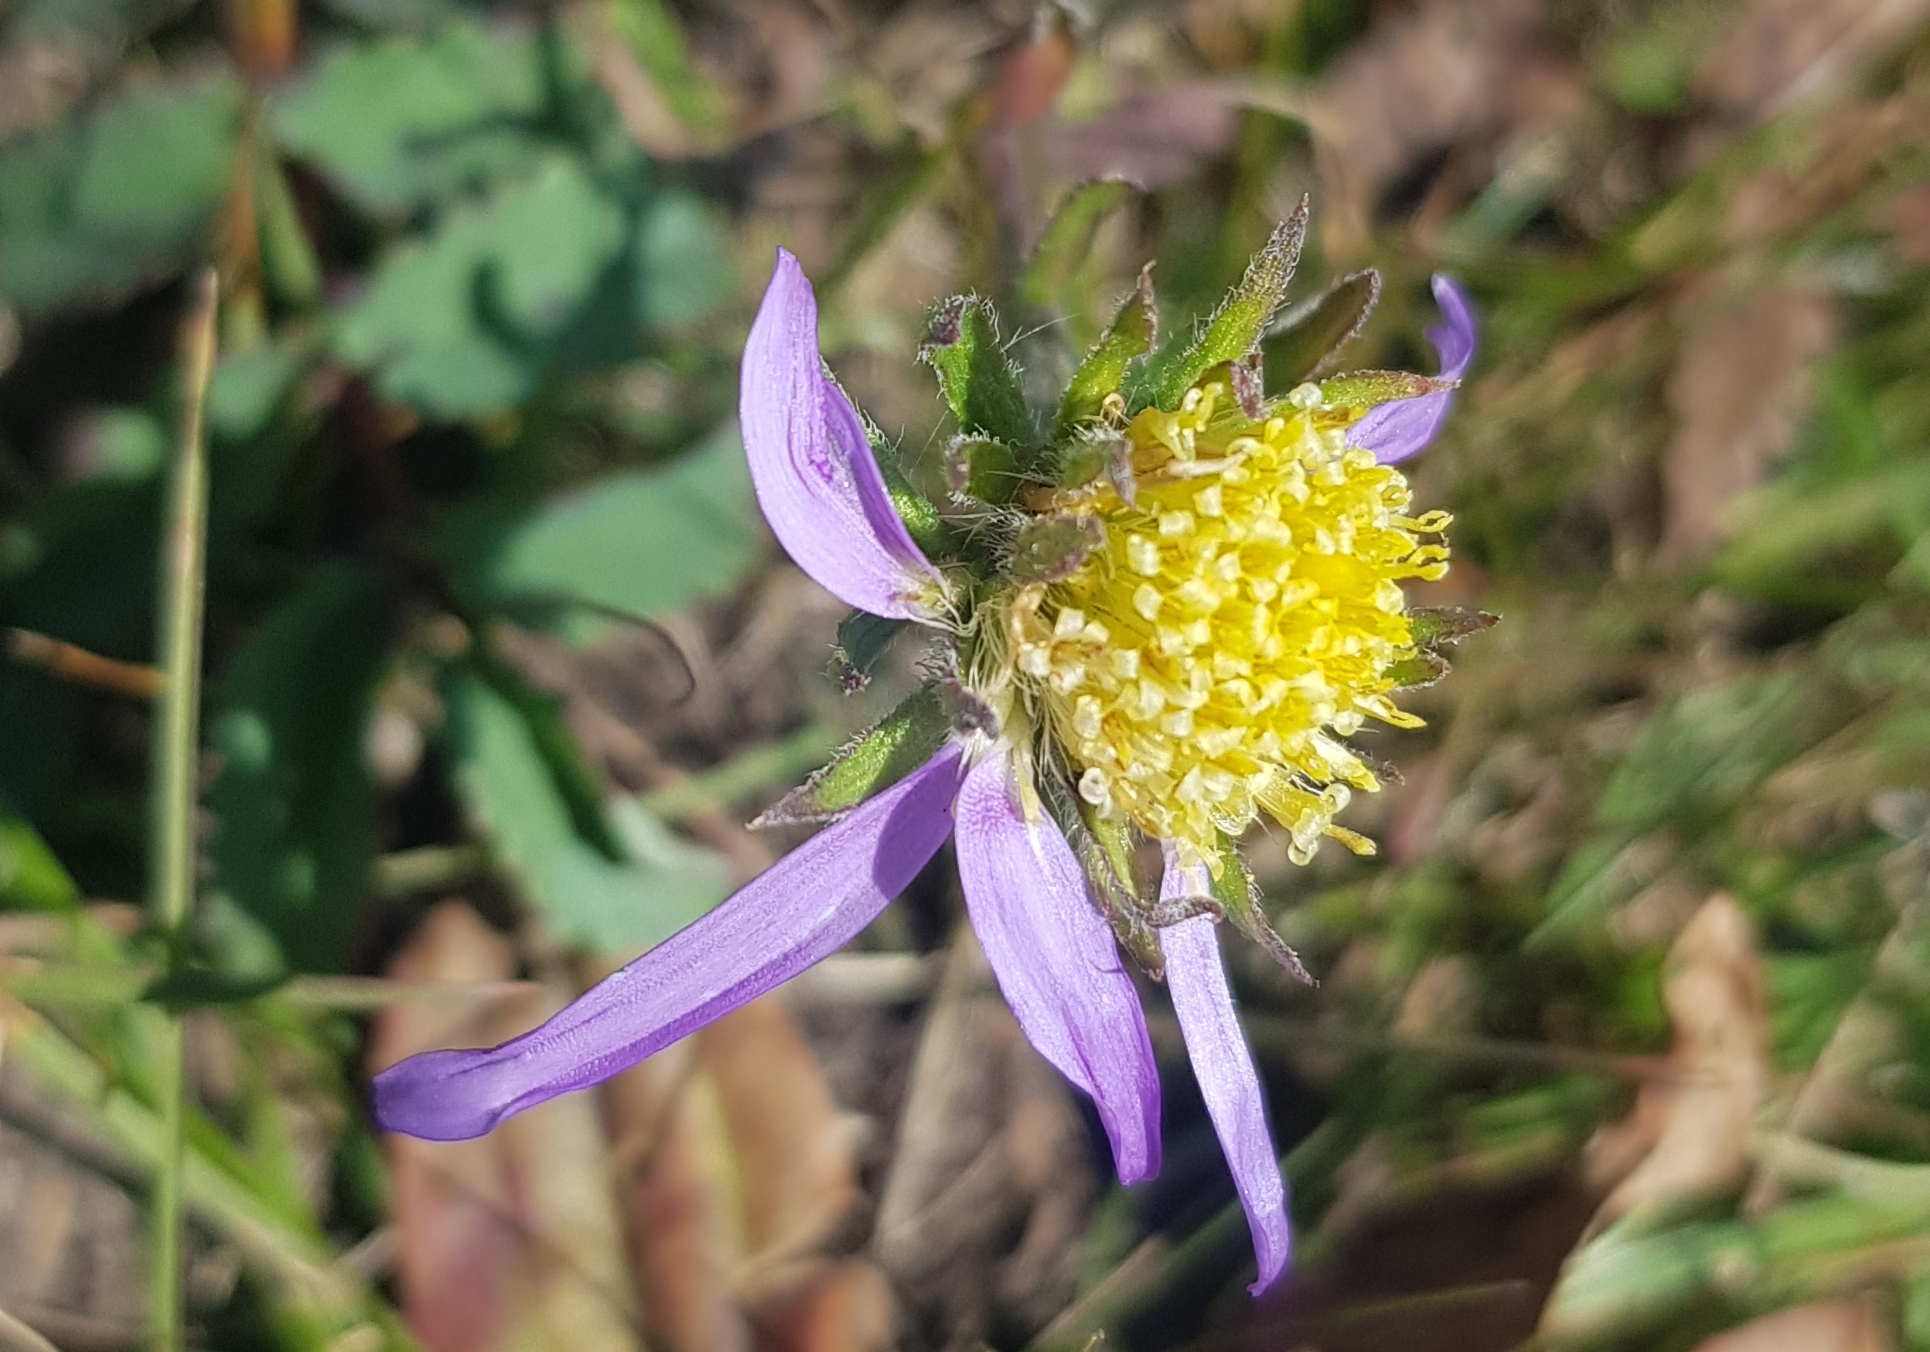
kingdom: Plantae
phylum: Tracheophyta
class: Magnoliopsida
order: Asterales
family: Asteraceae
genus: Heteropappus
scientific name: Heteropappus altaicus
